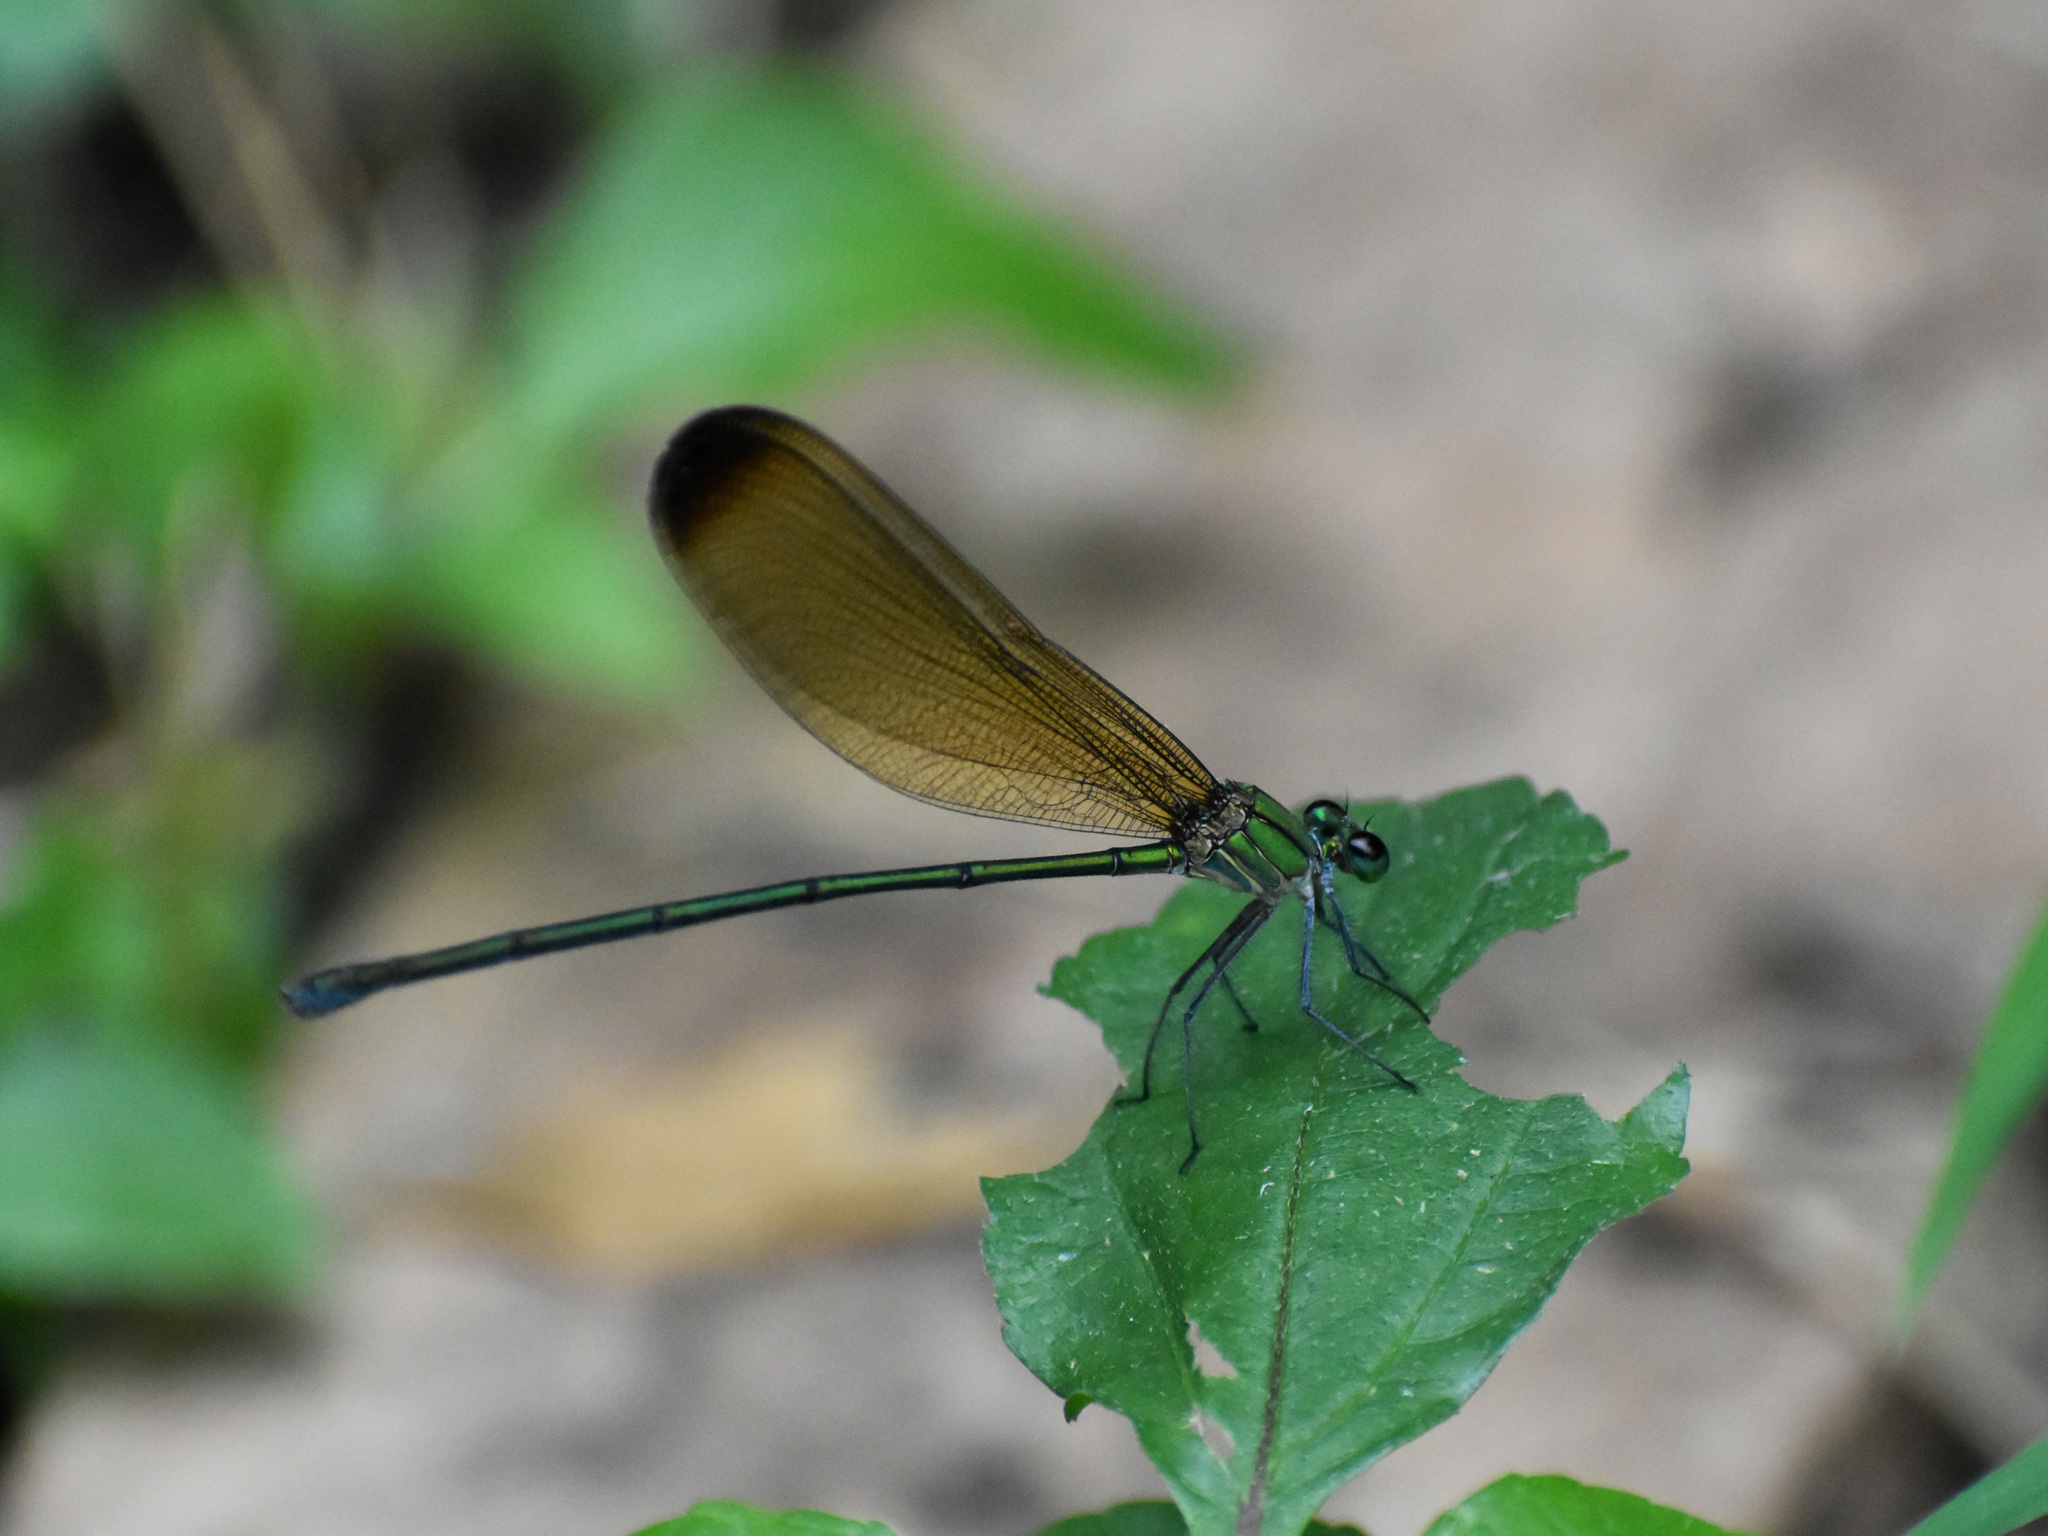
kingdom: Animalia
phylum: Arthropoda
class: Insecta
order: Odonata
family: Calopterygidae
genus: Vestalis
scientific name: Vestalis apicalis
